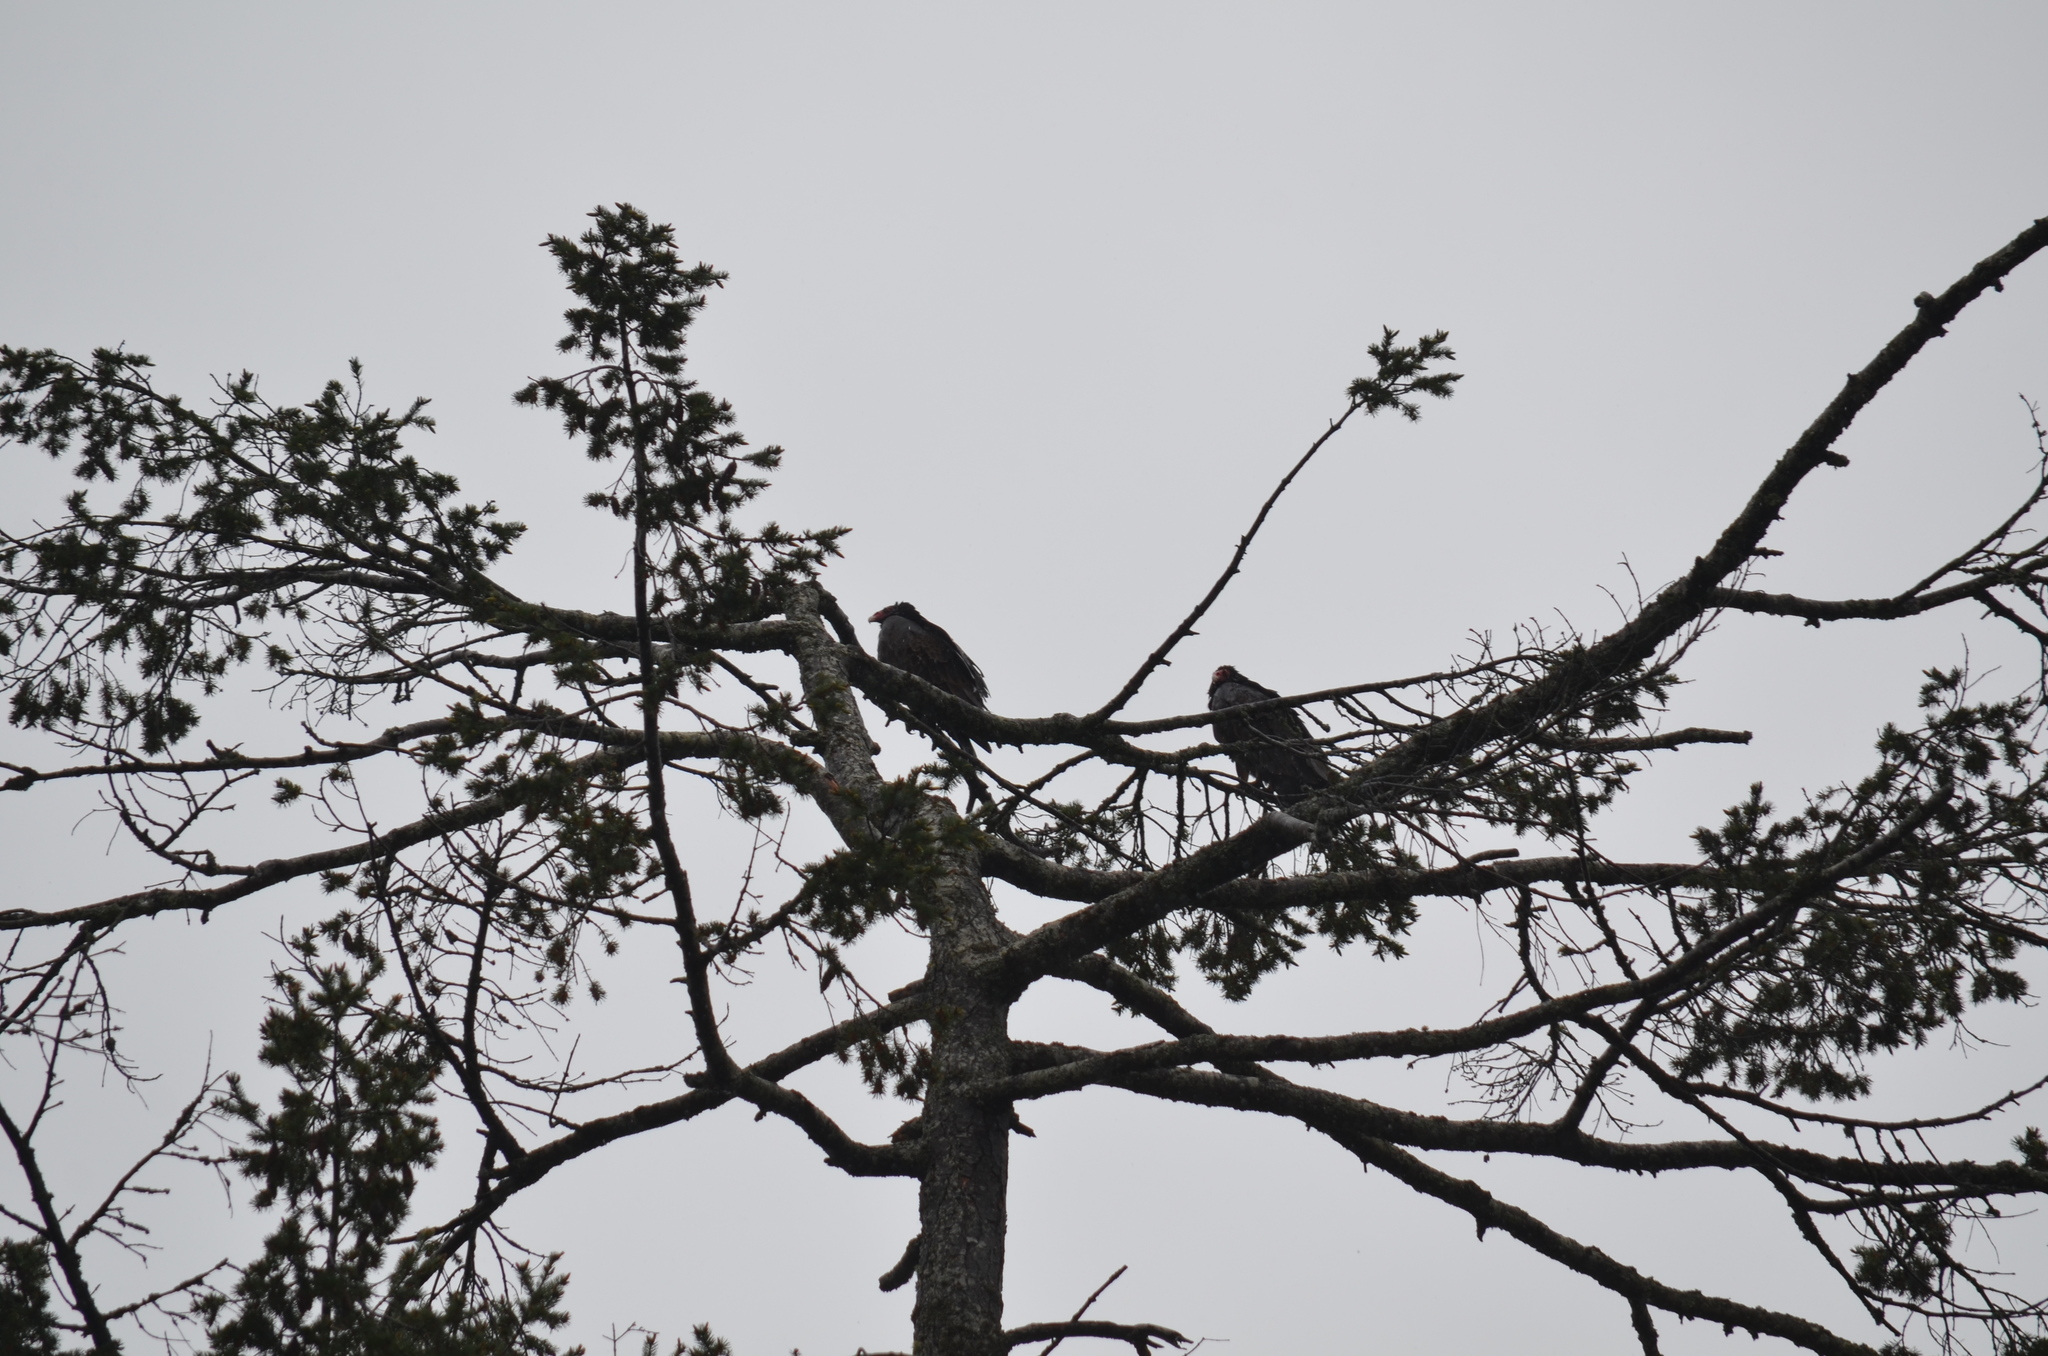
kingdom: Animalia
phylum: Chordata
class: Aves
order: Accipitriformes
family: Cathartidae
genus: Cathartes
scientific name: Cathartes aura
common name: Turkey vulture
